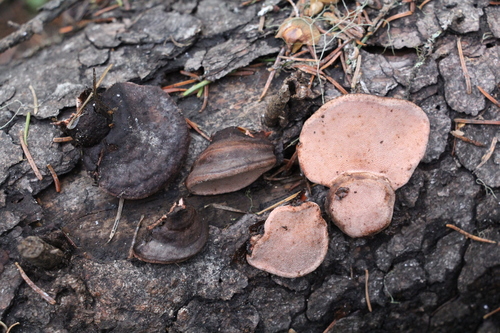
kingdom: Fungi
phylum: Basidiomycota
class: Agaricomycetes
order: Polyporales
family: Fomitopsidaceae
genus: Rhodofomes
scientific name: Rhodofomes roseus
